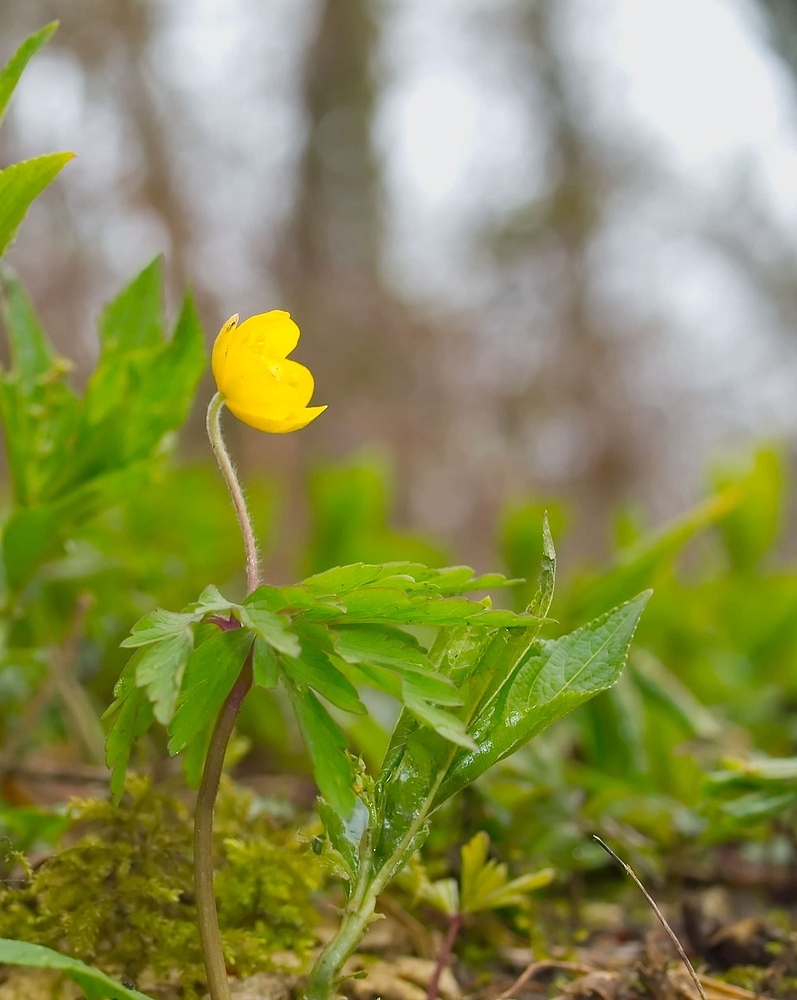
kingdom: Plantae
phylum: Tracheophyta
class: Magnoliopsida
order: Ranunculales
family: Ranunculaceae
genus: Anemone
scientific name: Anemone ranunculoides
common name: Yellow anemone
